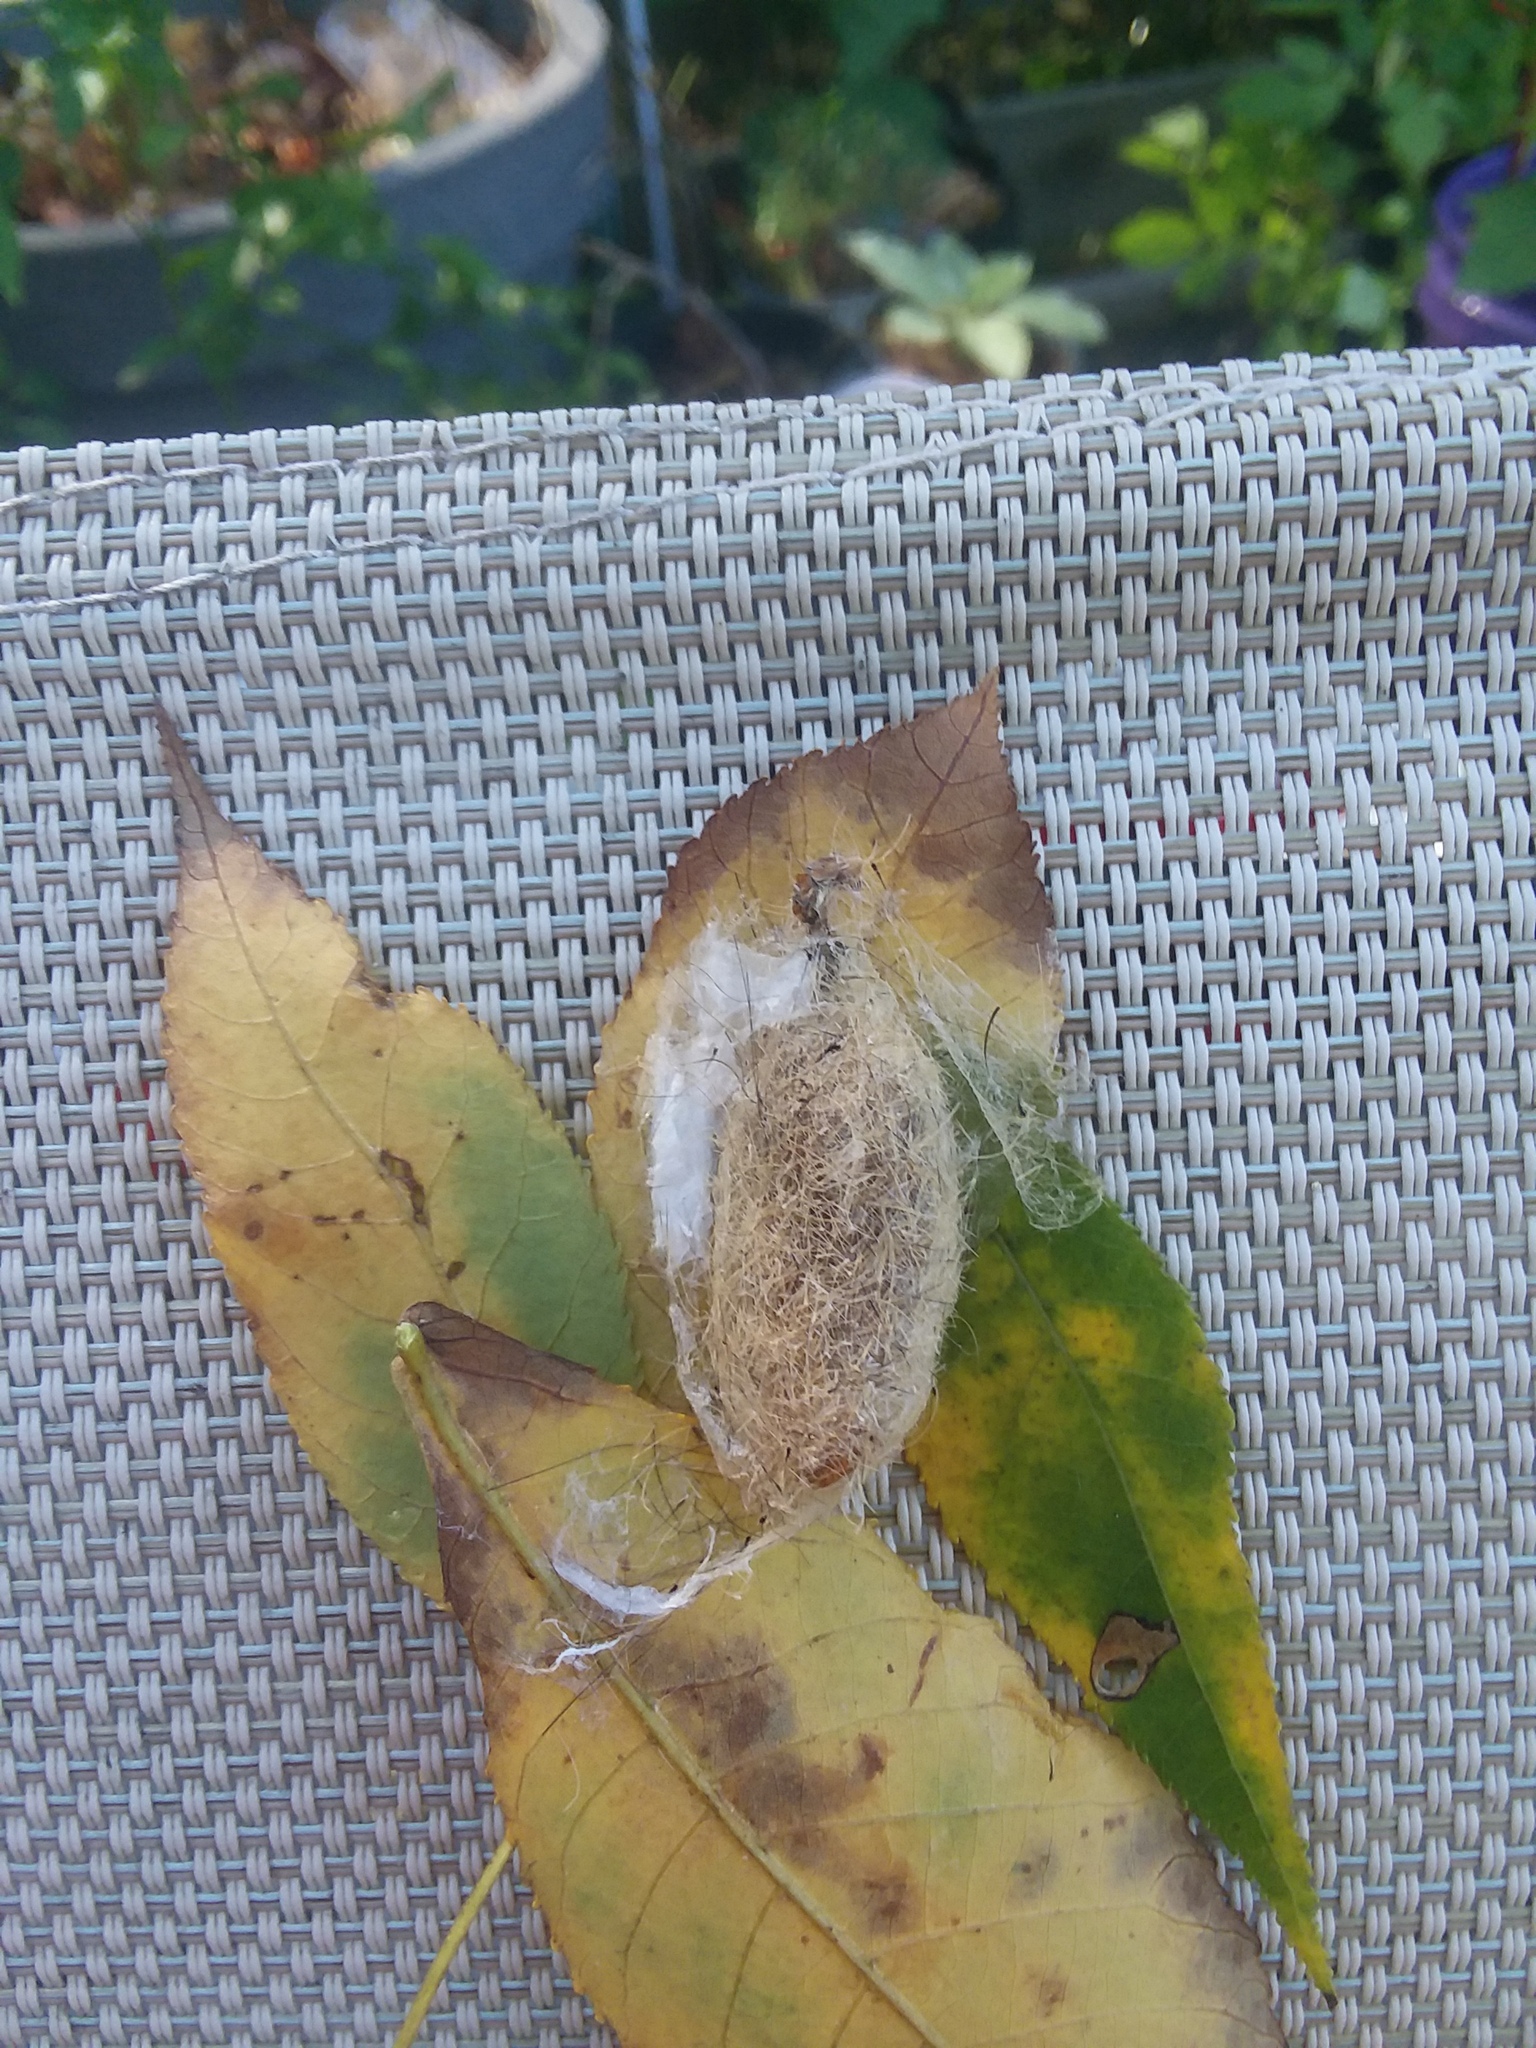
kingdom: Animalia
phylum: Arthropoda
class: Insecta
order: Lepidoptera
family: Saturniidae
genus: Antheraea
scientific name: Antheraea polyphemus
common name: Polyphemus moth
